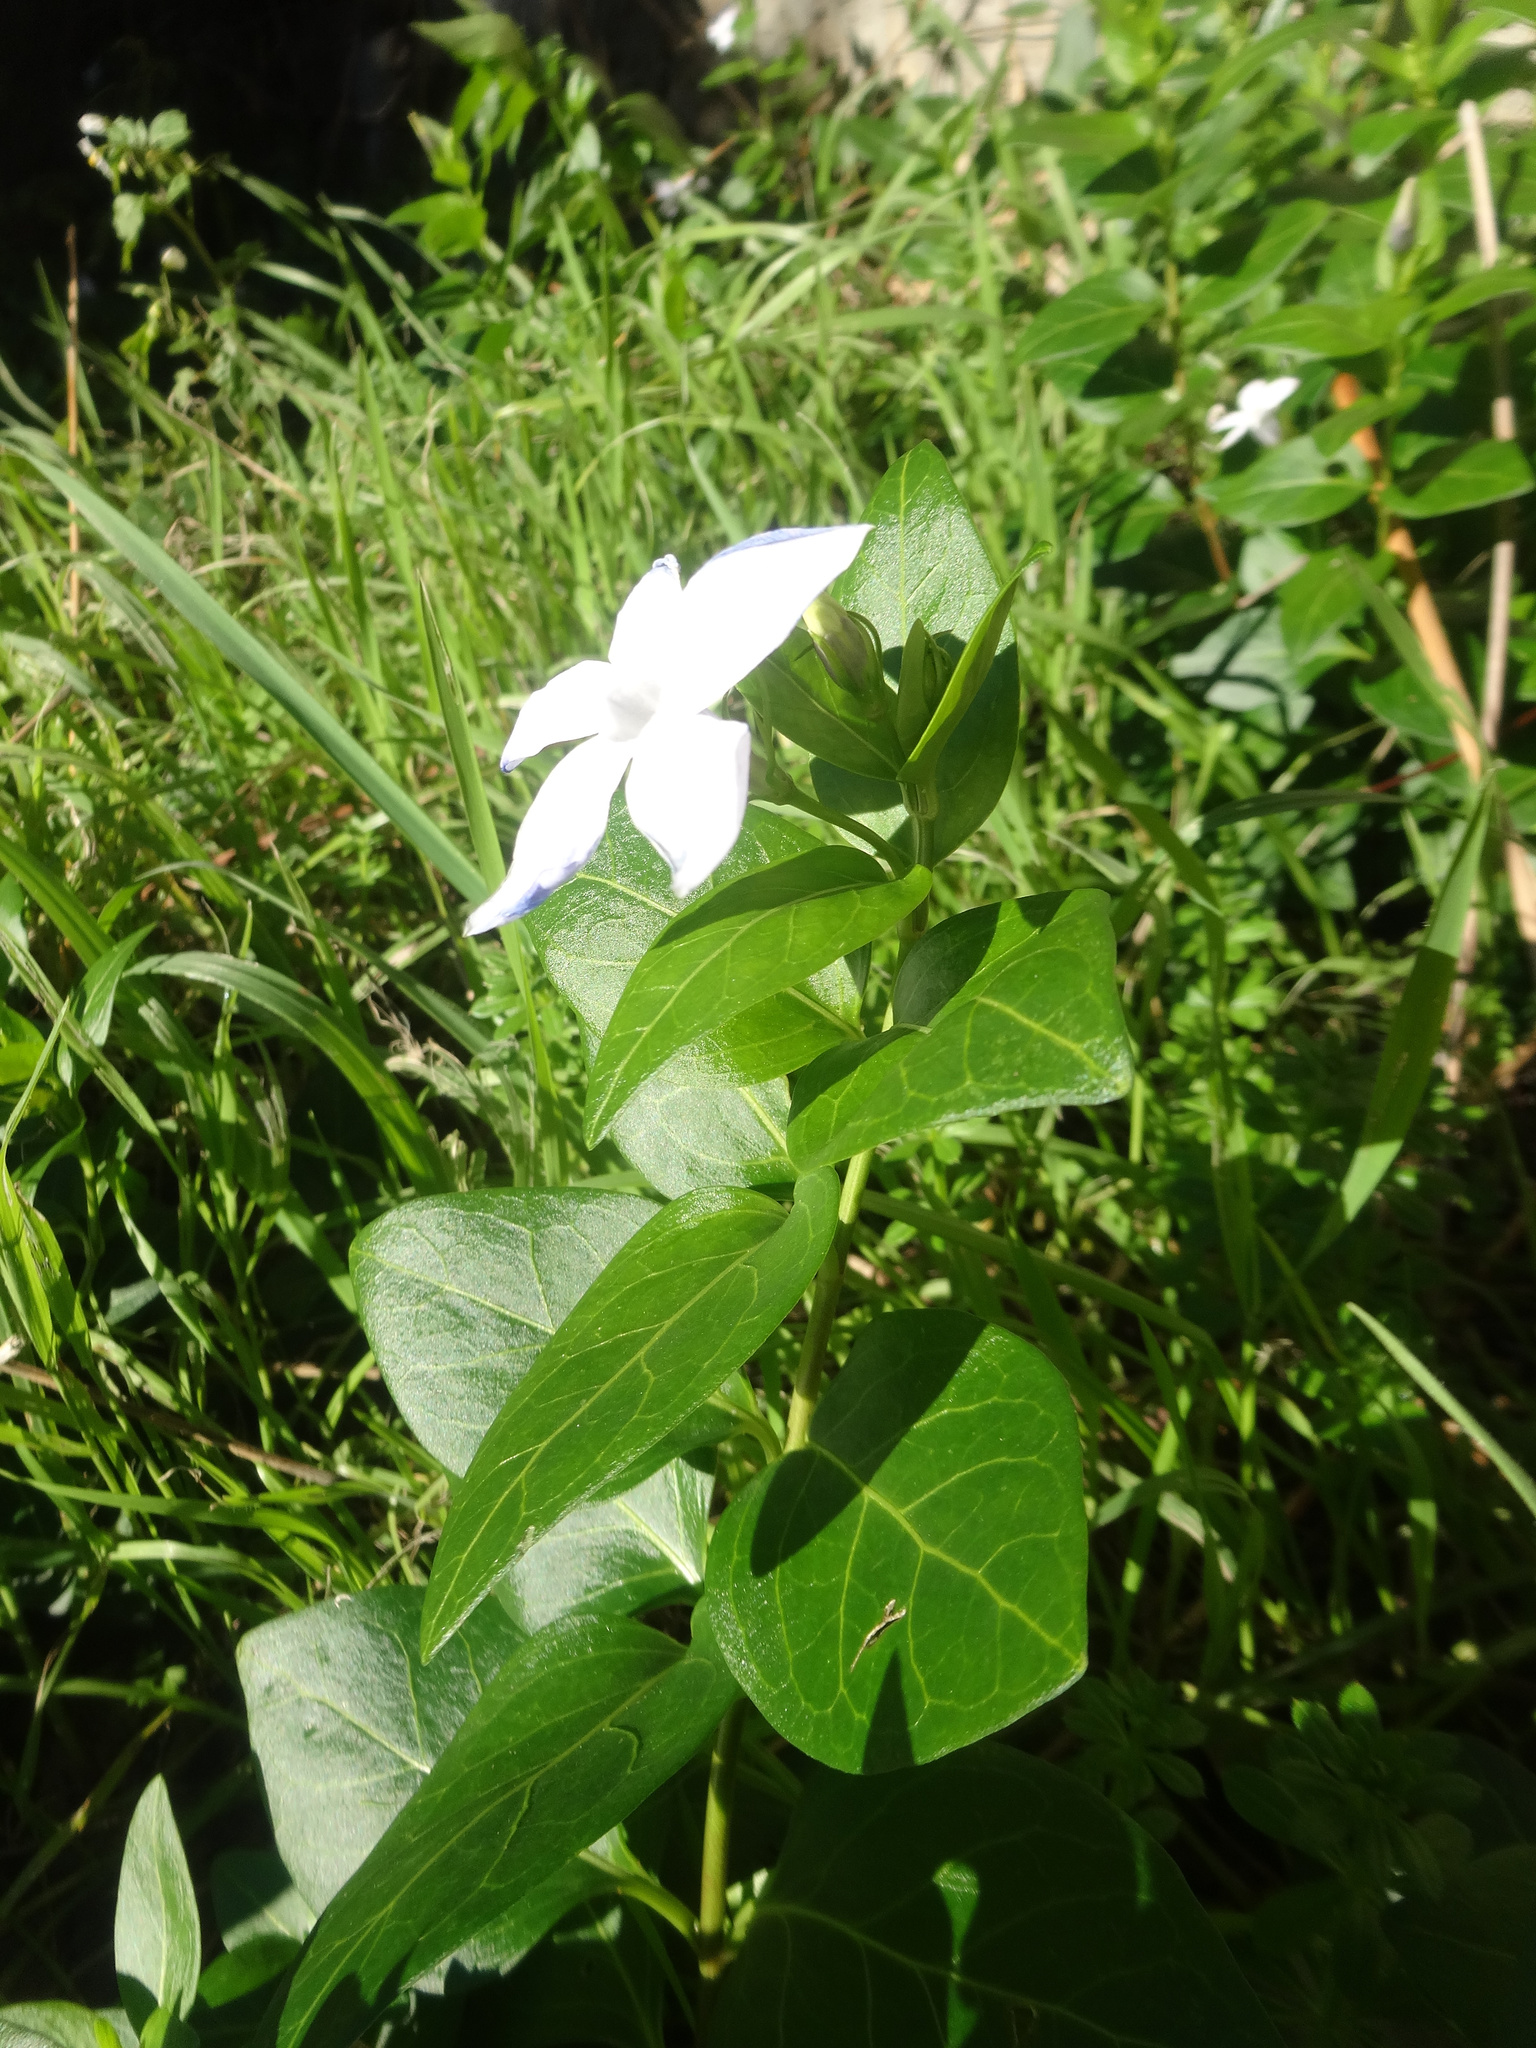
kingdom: Plantae
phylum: Tracheophyta
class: Magnoliopsida
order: Gentianales
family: Apocynaceae
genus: Vinca
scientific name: Vinca difformis
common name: Intermediate periwinkle
